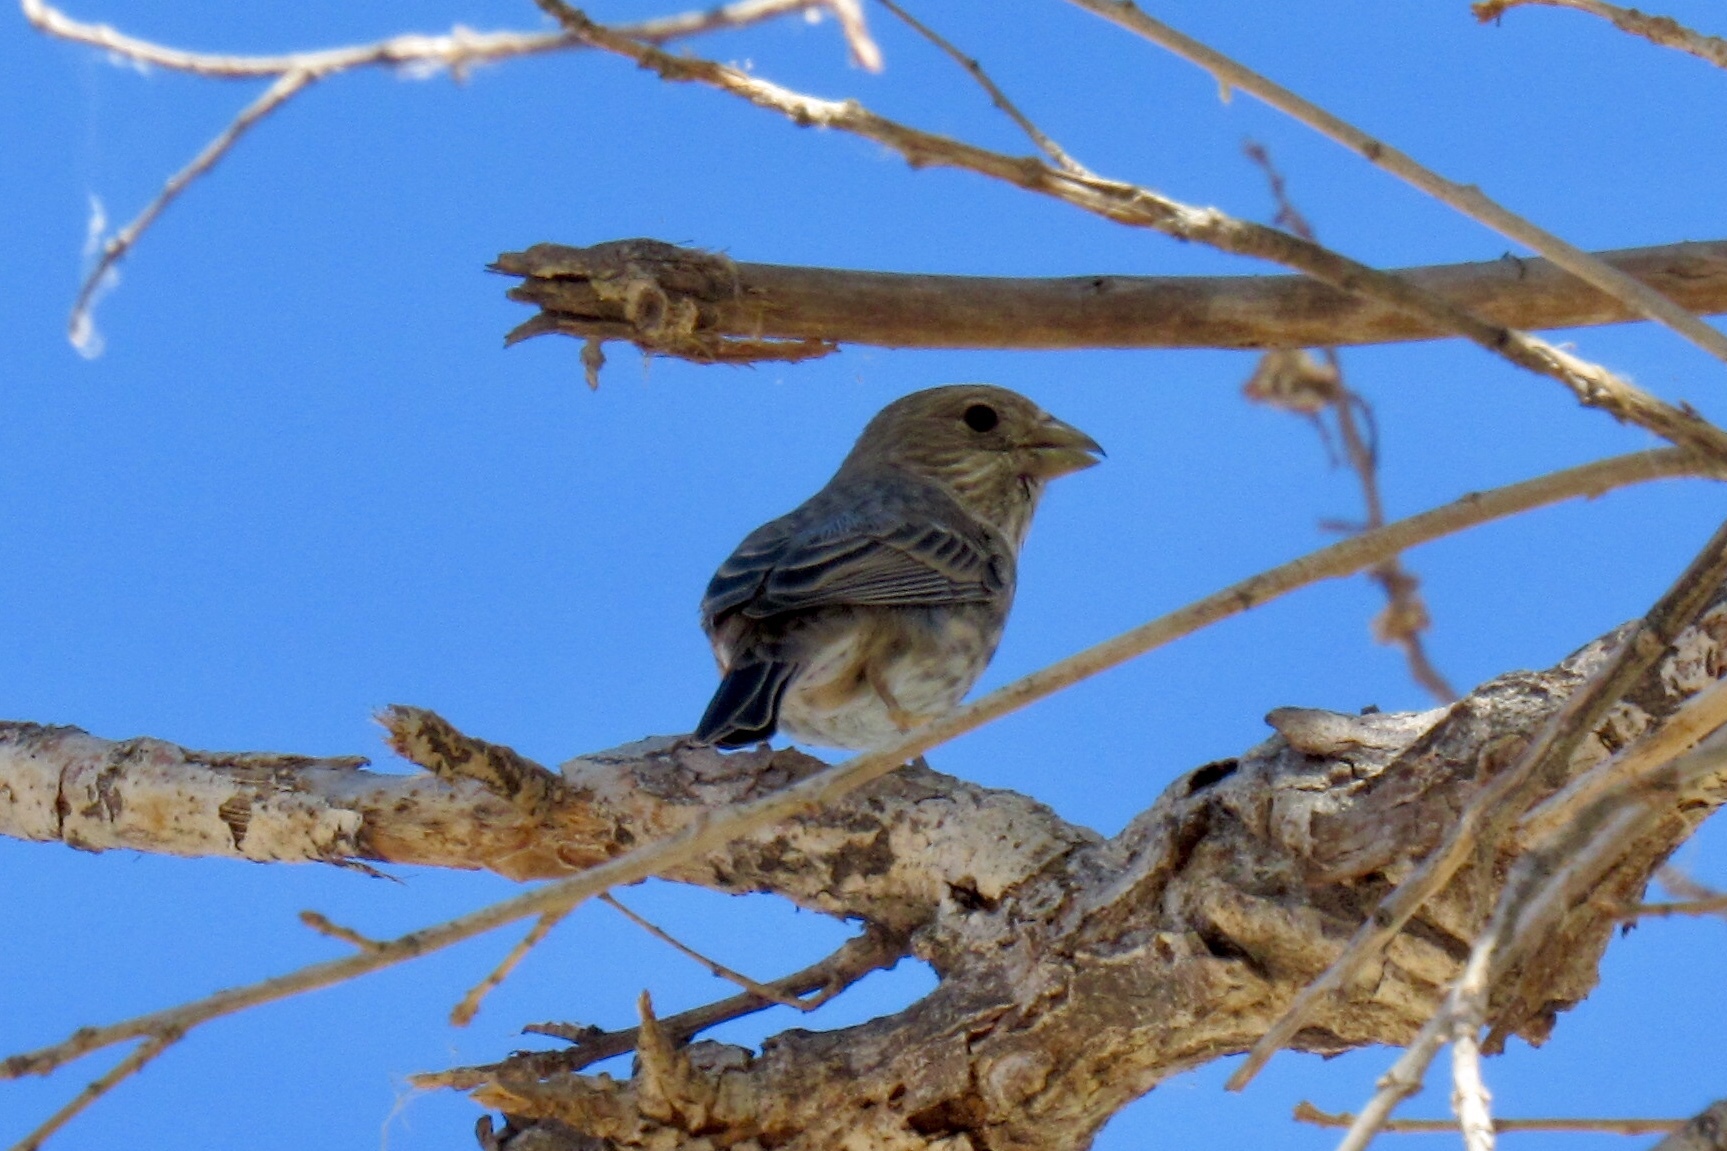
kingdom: Animalia
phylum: Chordata
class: Aves
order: Passeriformes
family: Fringillidae
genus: Haemorhous
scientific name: Haemorhous mexicanus
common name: House finch
